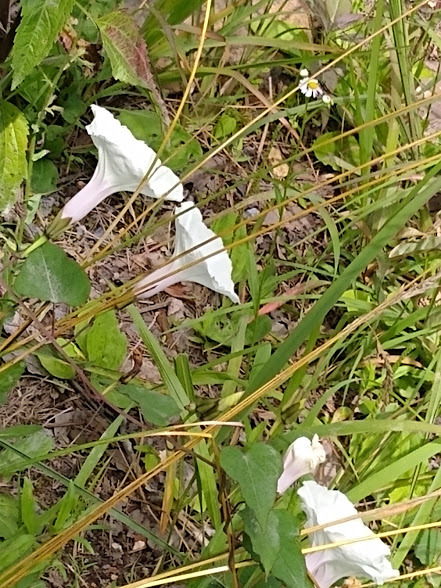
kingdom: Plantae
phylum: Tracheophyta
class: Magnoliopsida
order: Solanales
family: Convolvulaceae
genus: Ipomoea
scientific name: Ipomoea pandurata
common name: Man-of-the-earth
